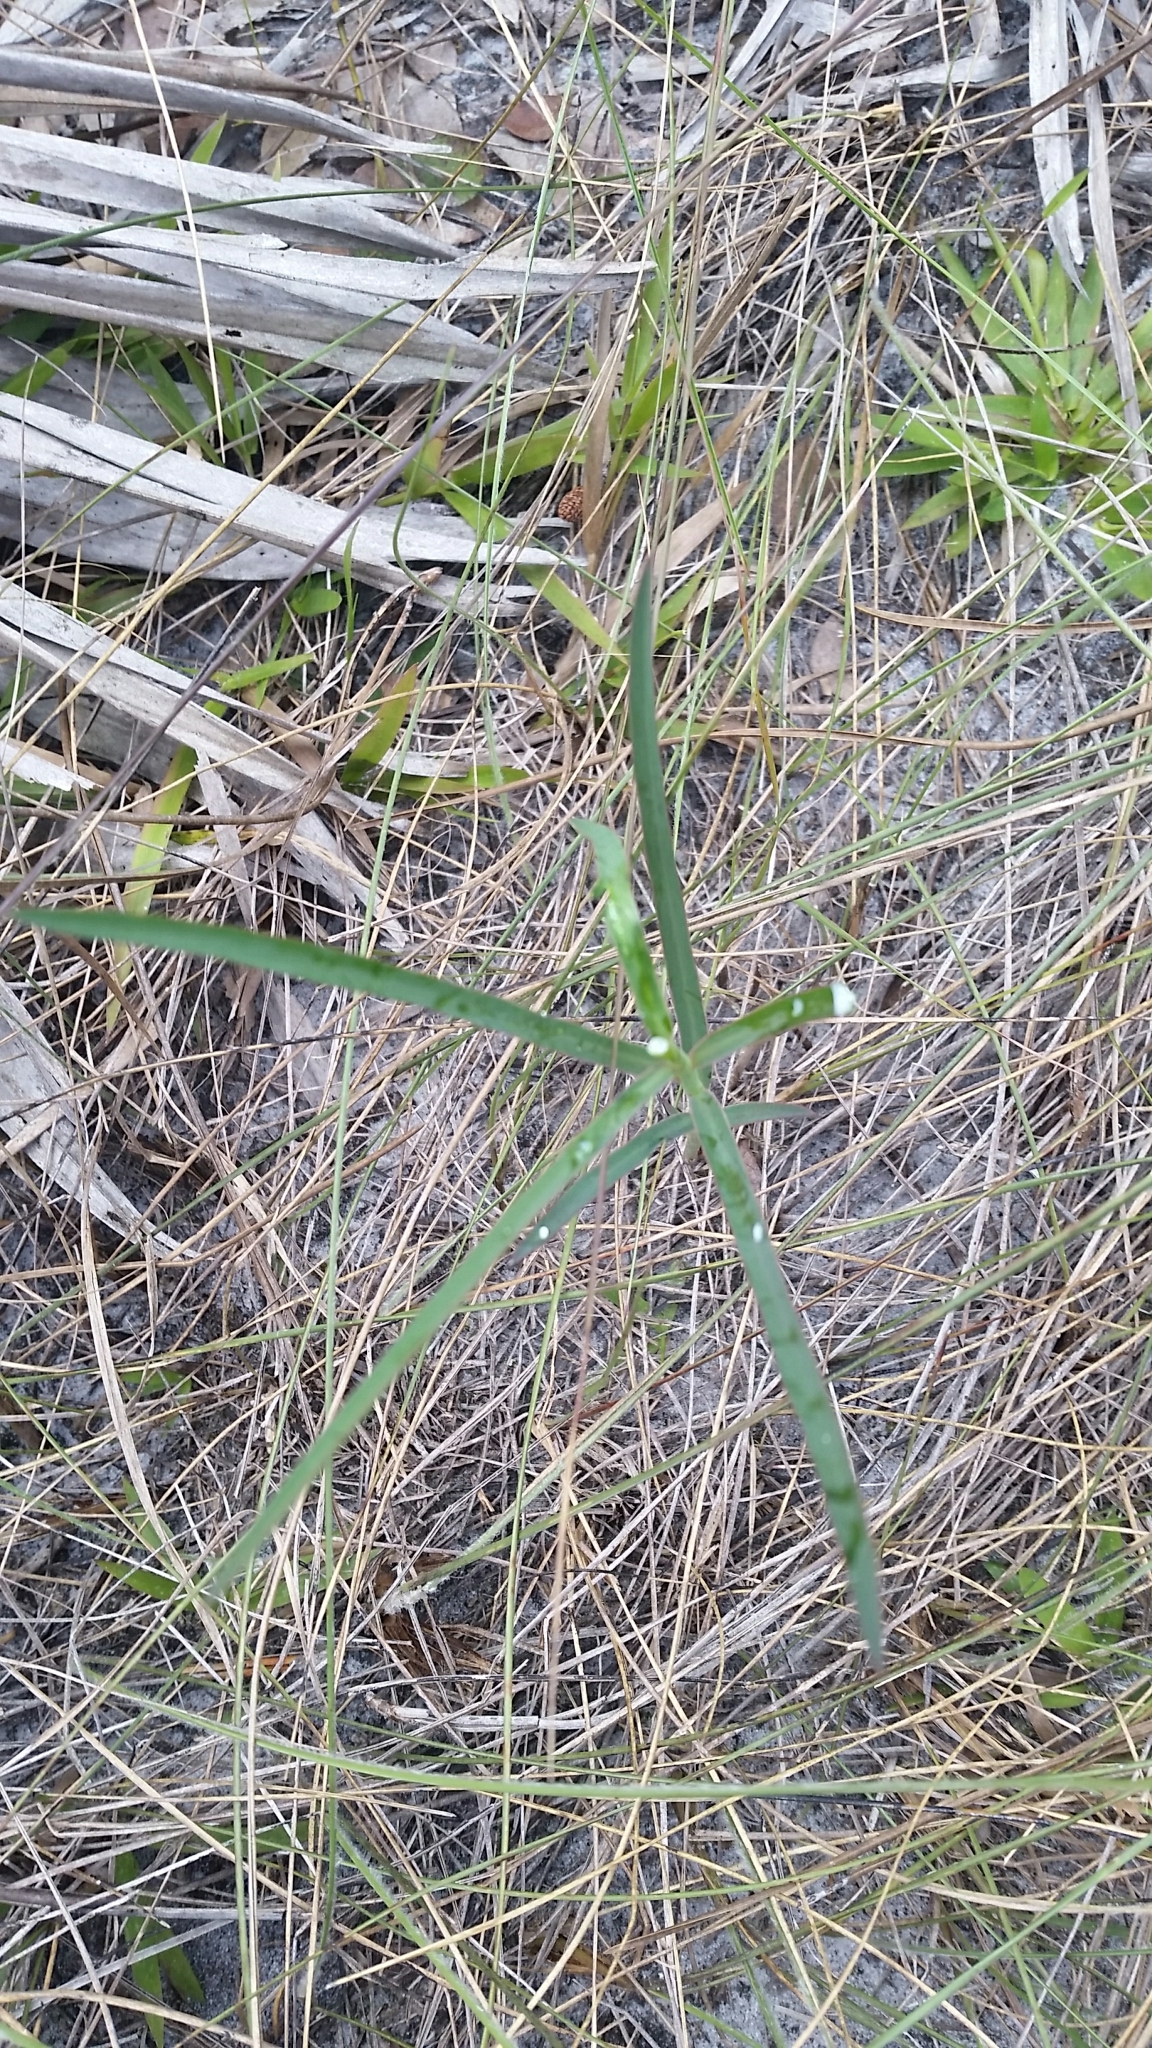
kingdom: Plantae
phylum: Tracheophyta
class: Magnoliopsida
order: Malpighiales
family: Euphorbiaceae
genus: Euphorbia
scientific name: Euphorbia inundata
